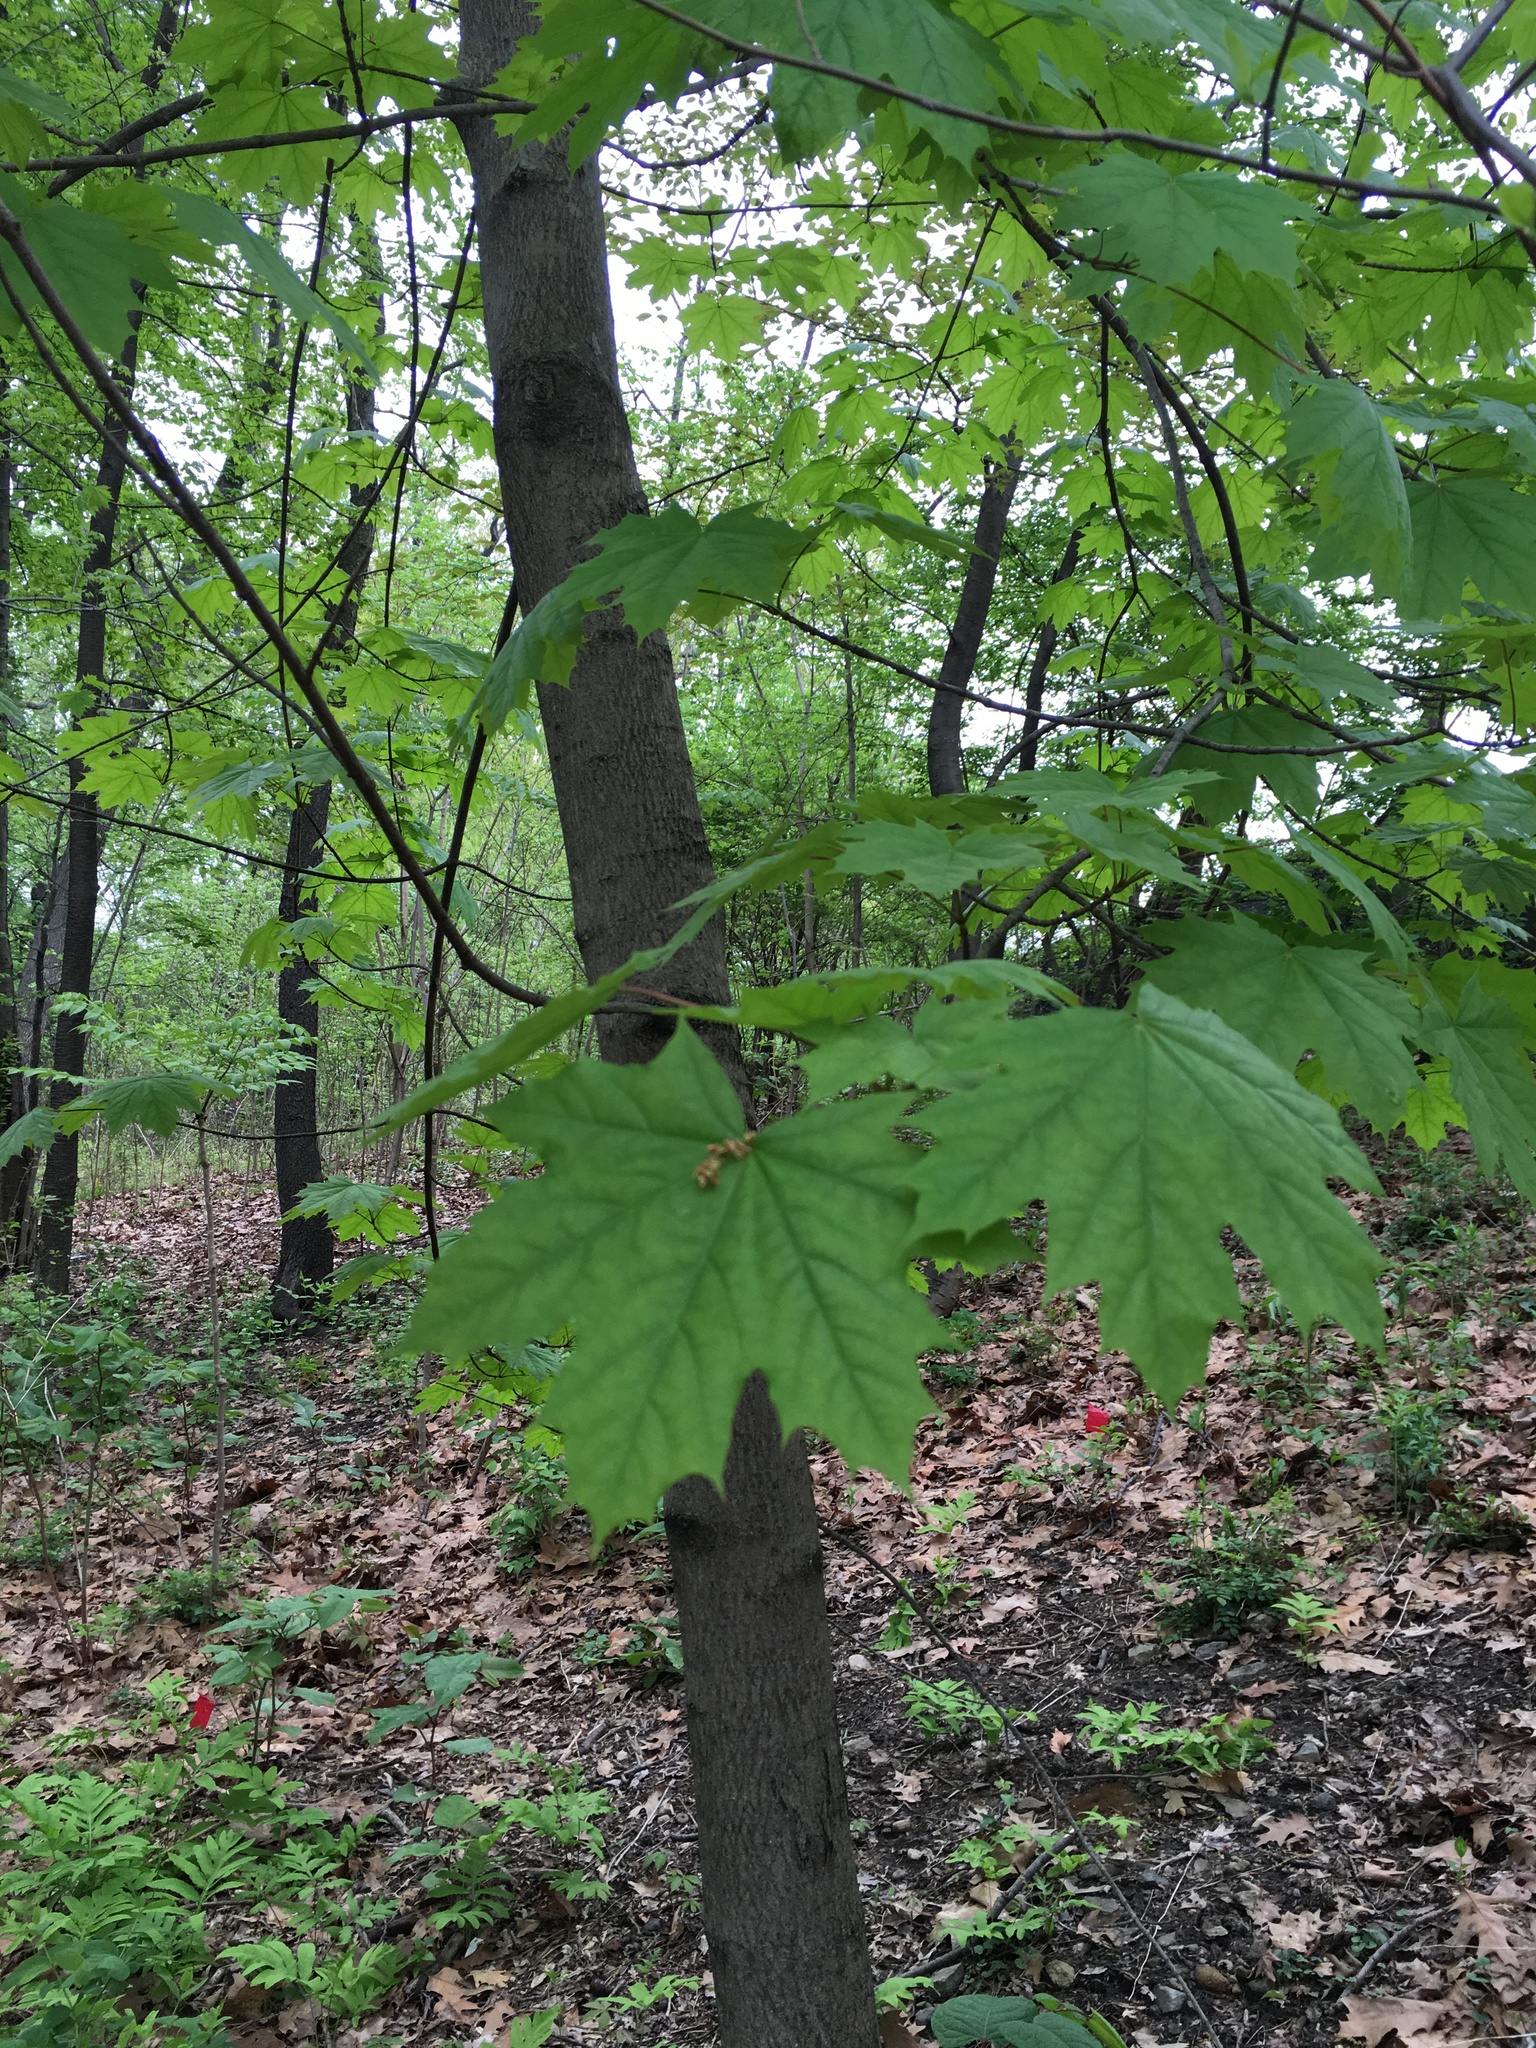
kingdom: Plantae
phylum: Tracheophyta
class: Magnoliopsida
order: Sapindales
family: Sapindaceae
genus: Acer
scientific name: Acer platanoides
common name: Norway maple
